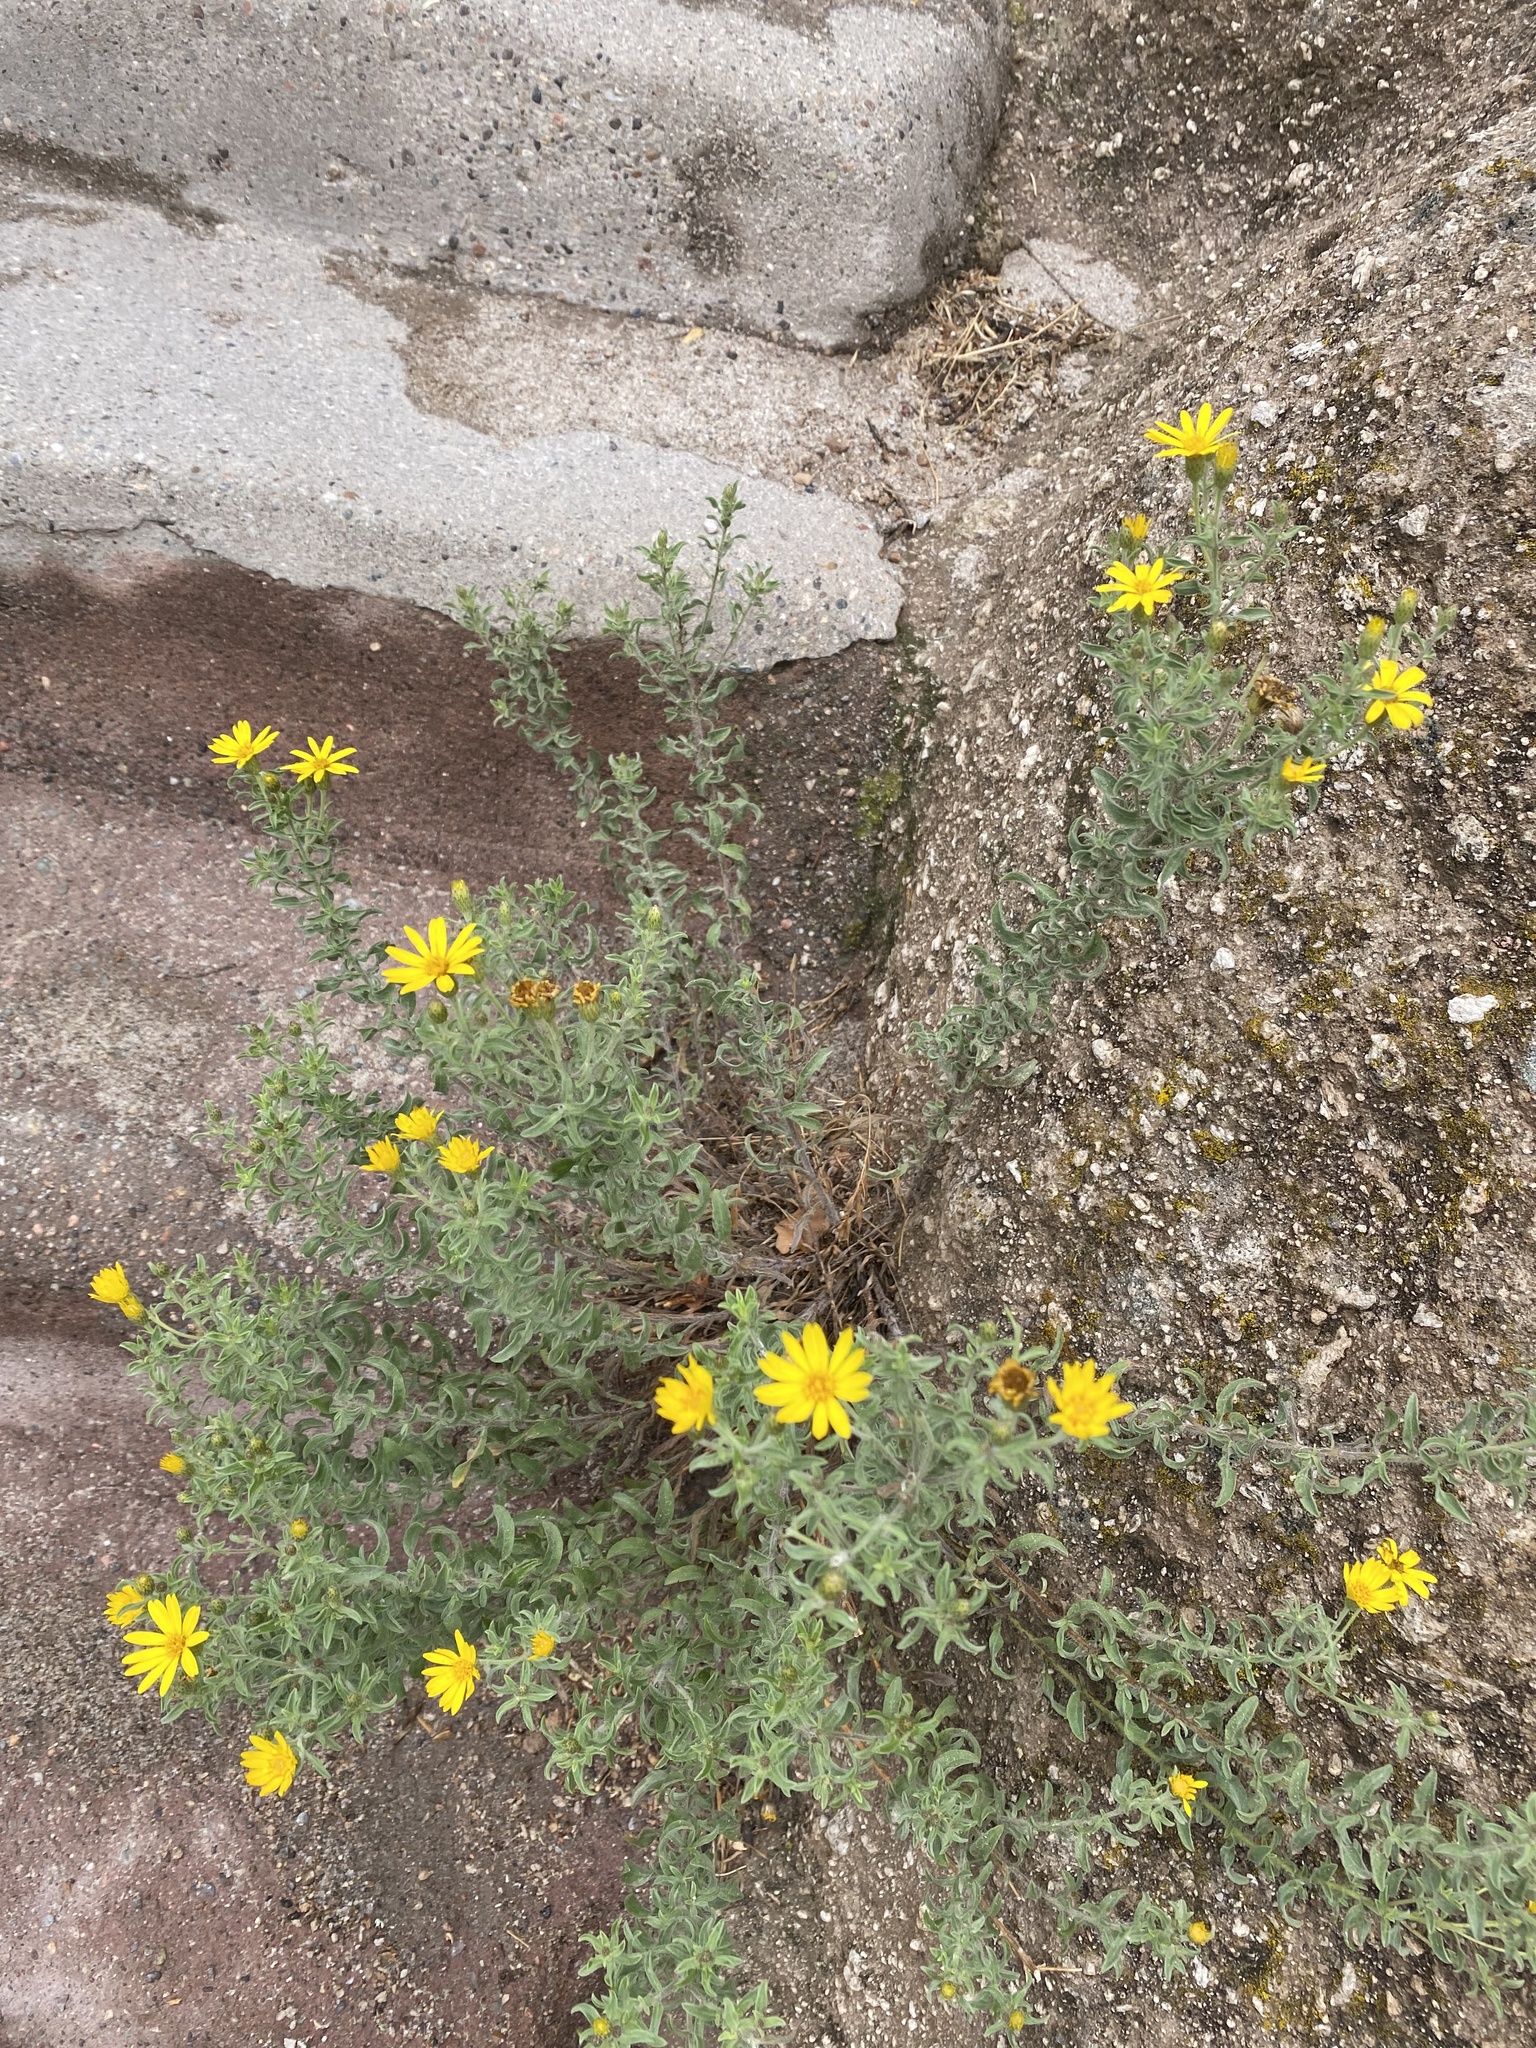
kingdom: Plantae
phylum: Tracheophyta
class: Magnoliopsida
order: Asterales
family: Asteraceae
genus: Heterotheca
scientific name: Heterotheca hirsutissima
